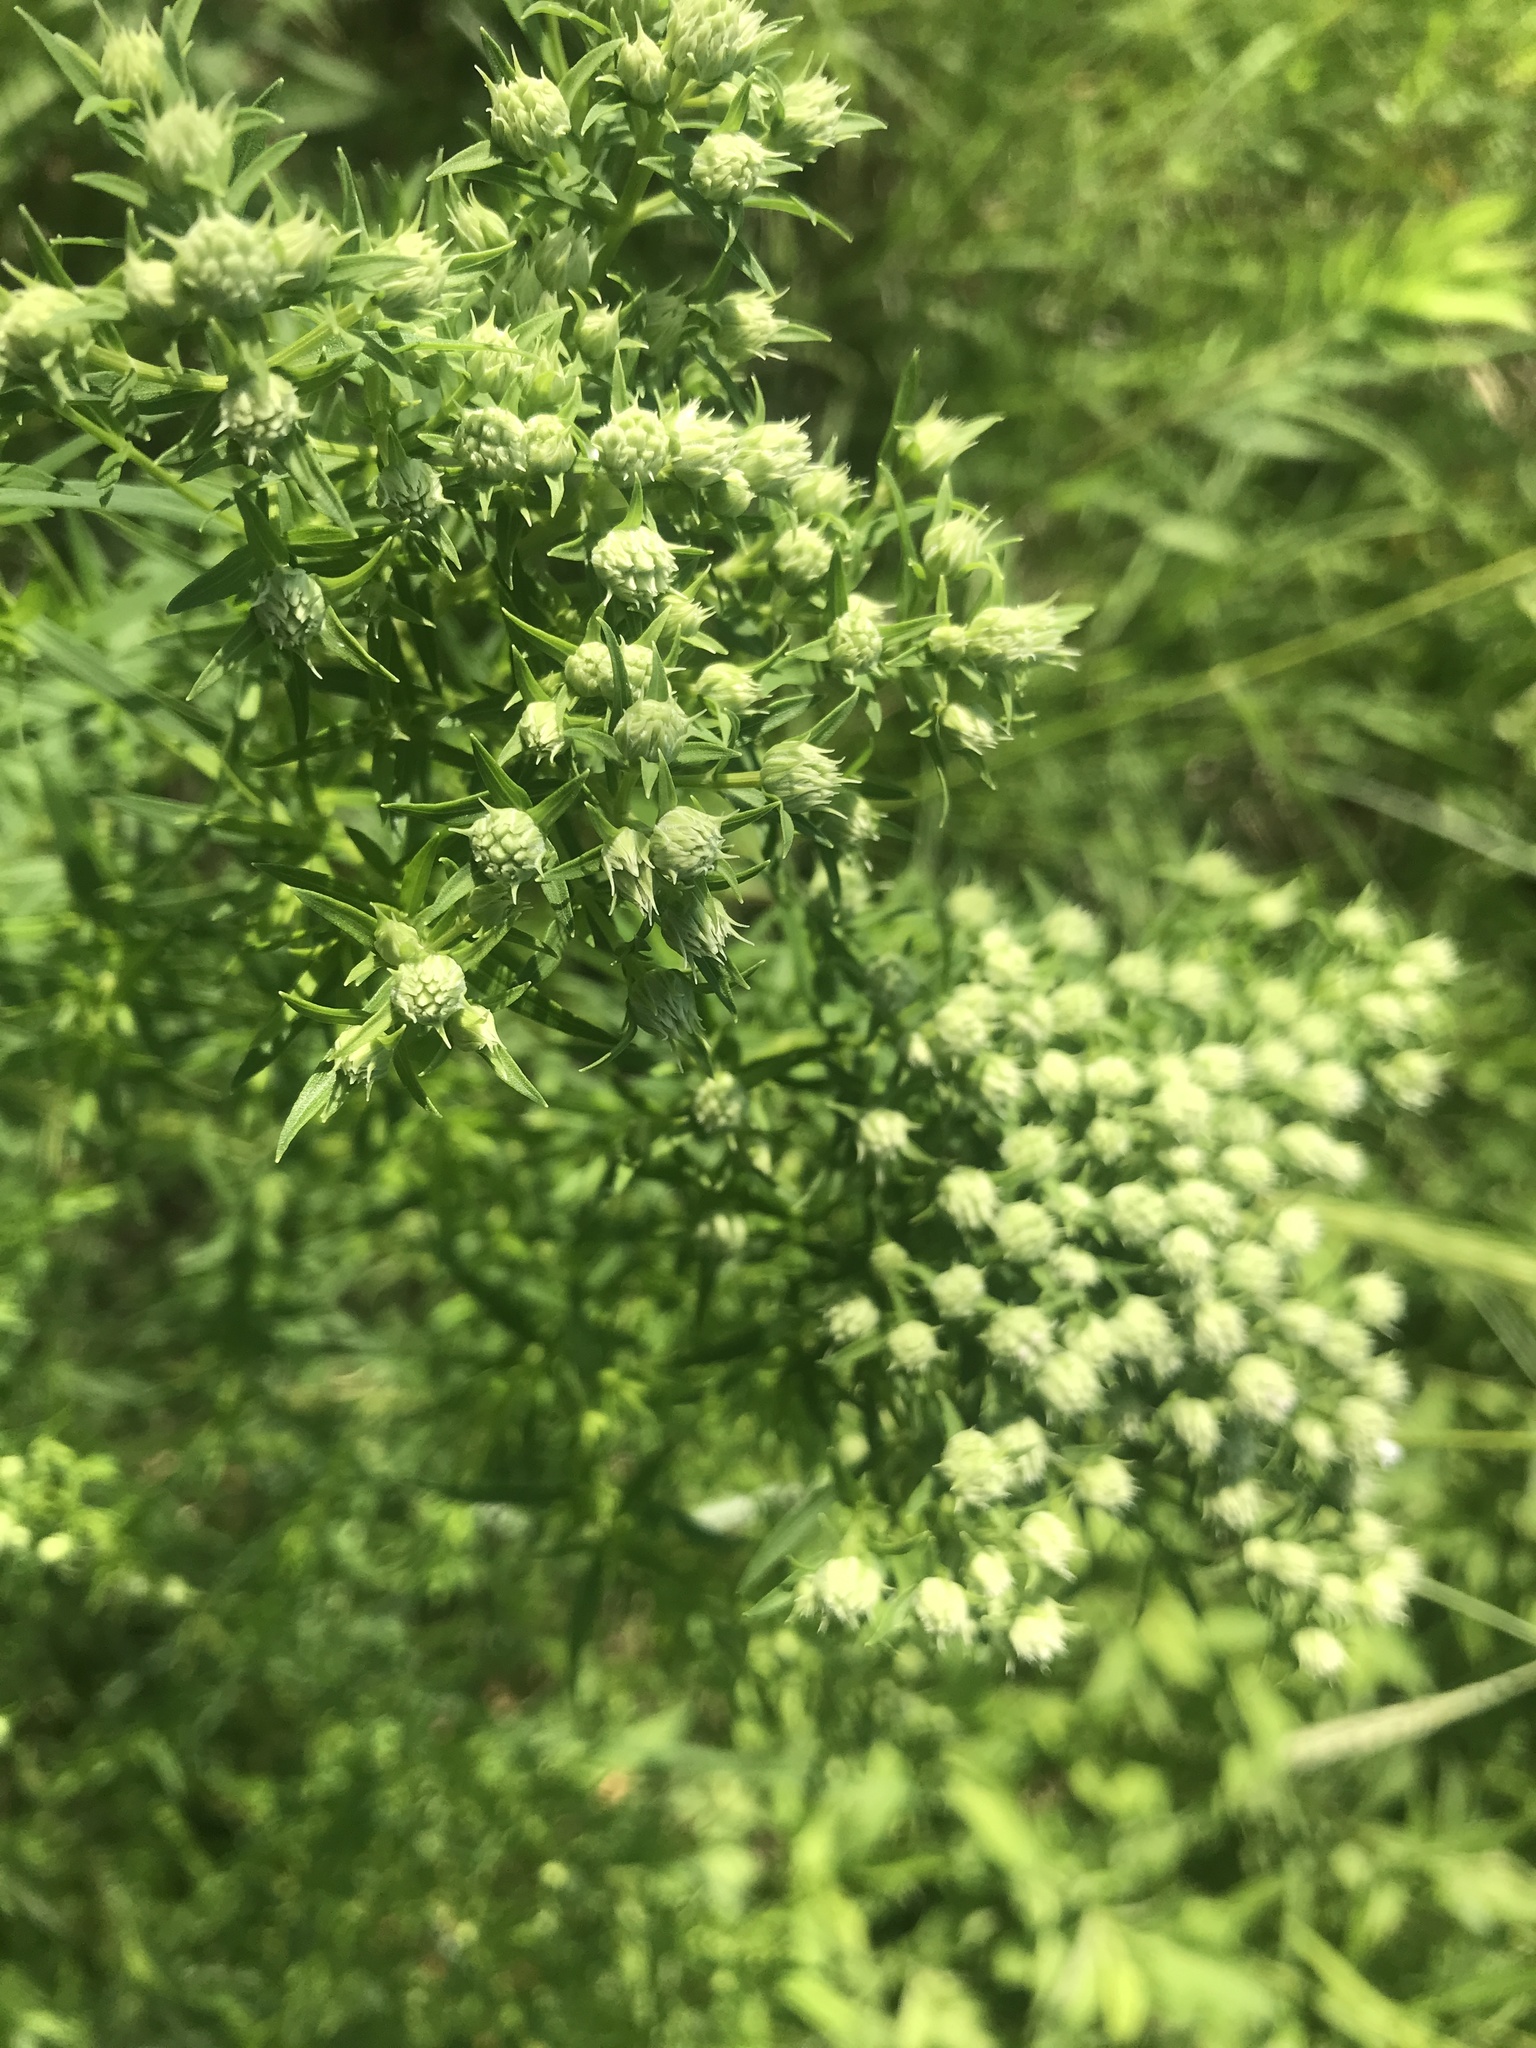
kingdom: Plantae
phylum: Tracheophyta
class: Magnoliopsida
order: Lamiales
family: Lamiaceae
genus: Pycnanthemum
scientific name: Pycnanthemum tenuifolium
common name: Narrow-leaf mountain-mint
